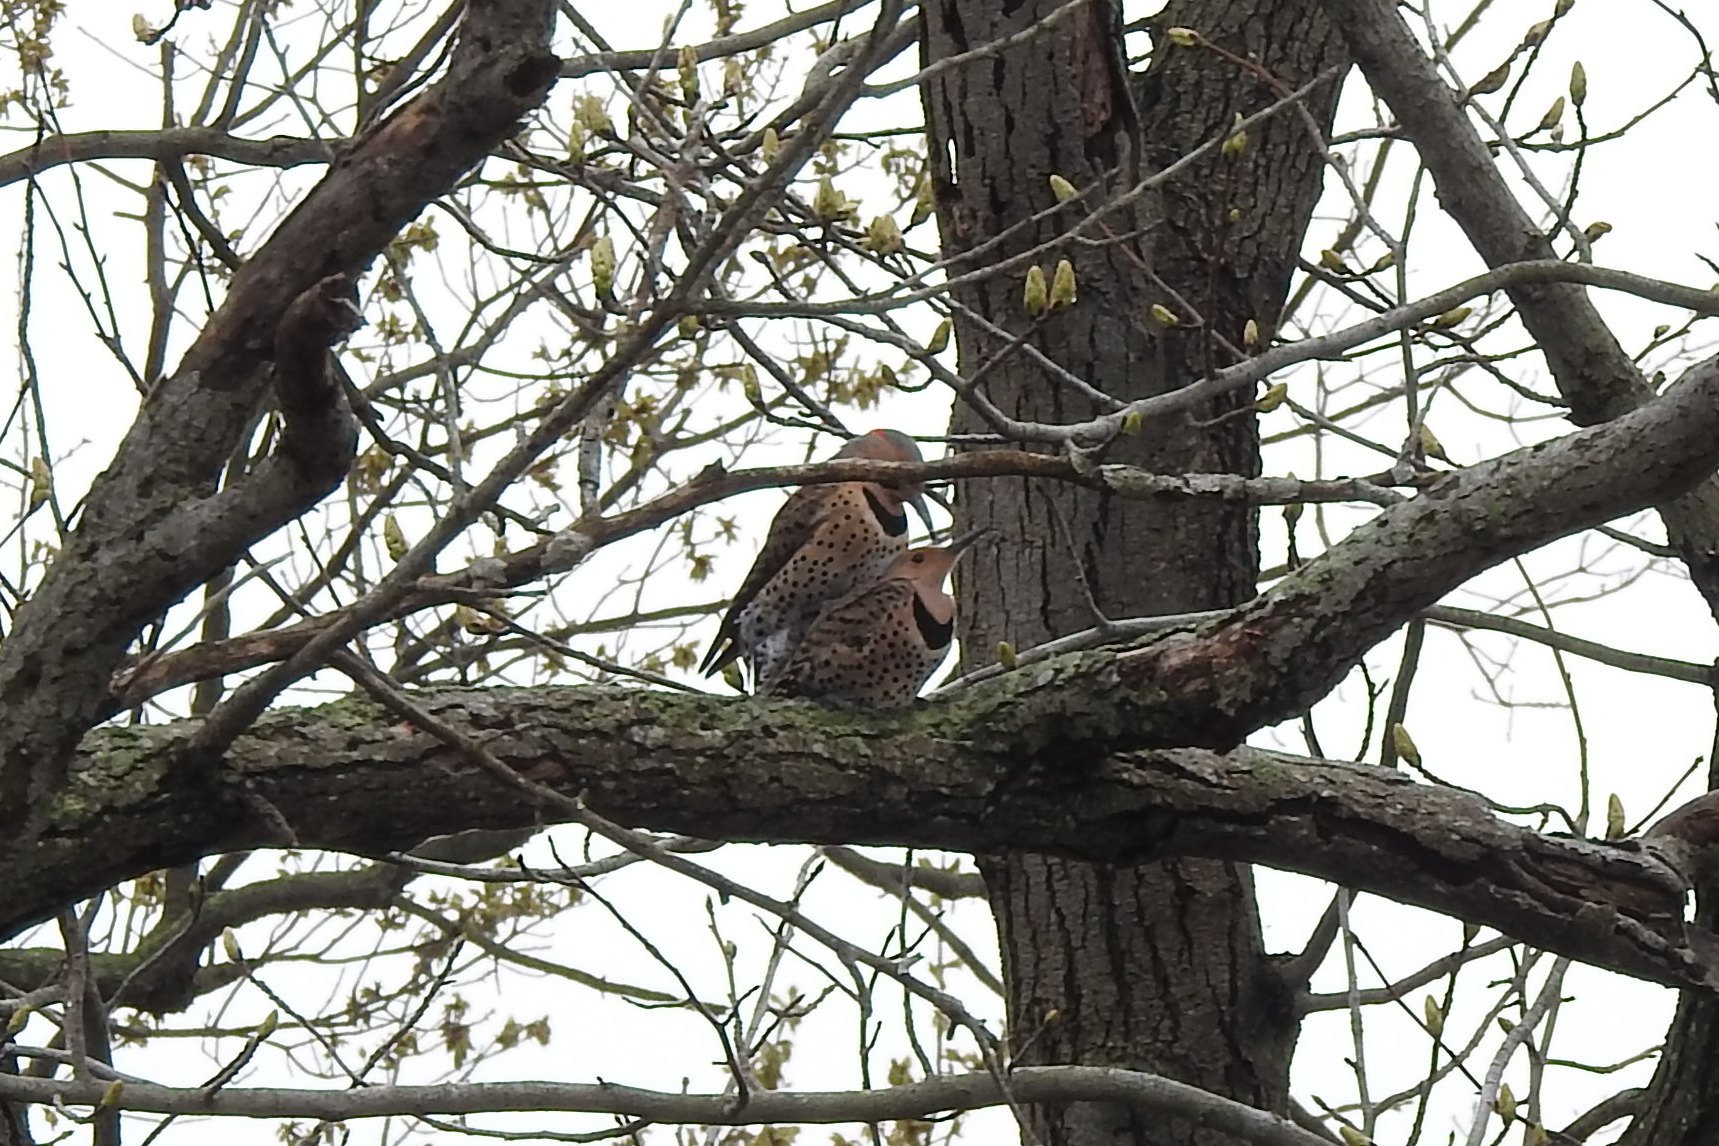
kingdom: Animalia
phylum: Chordata
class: Aves
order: Piciformes
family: Picidae
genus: Colaptes
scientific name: Colaptes auratus
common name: Northern flicker
